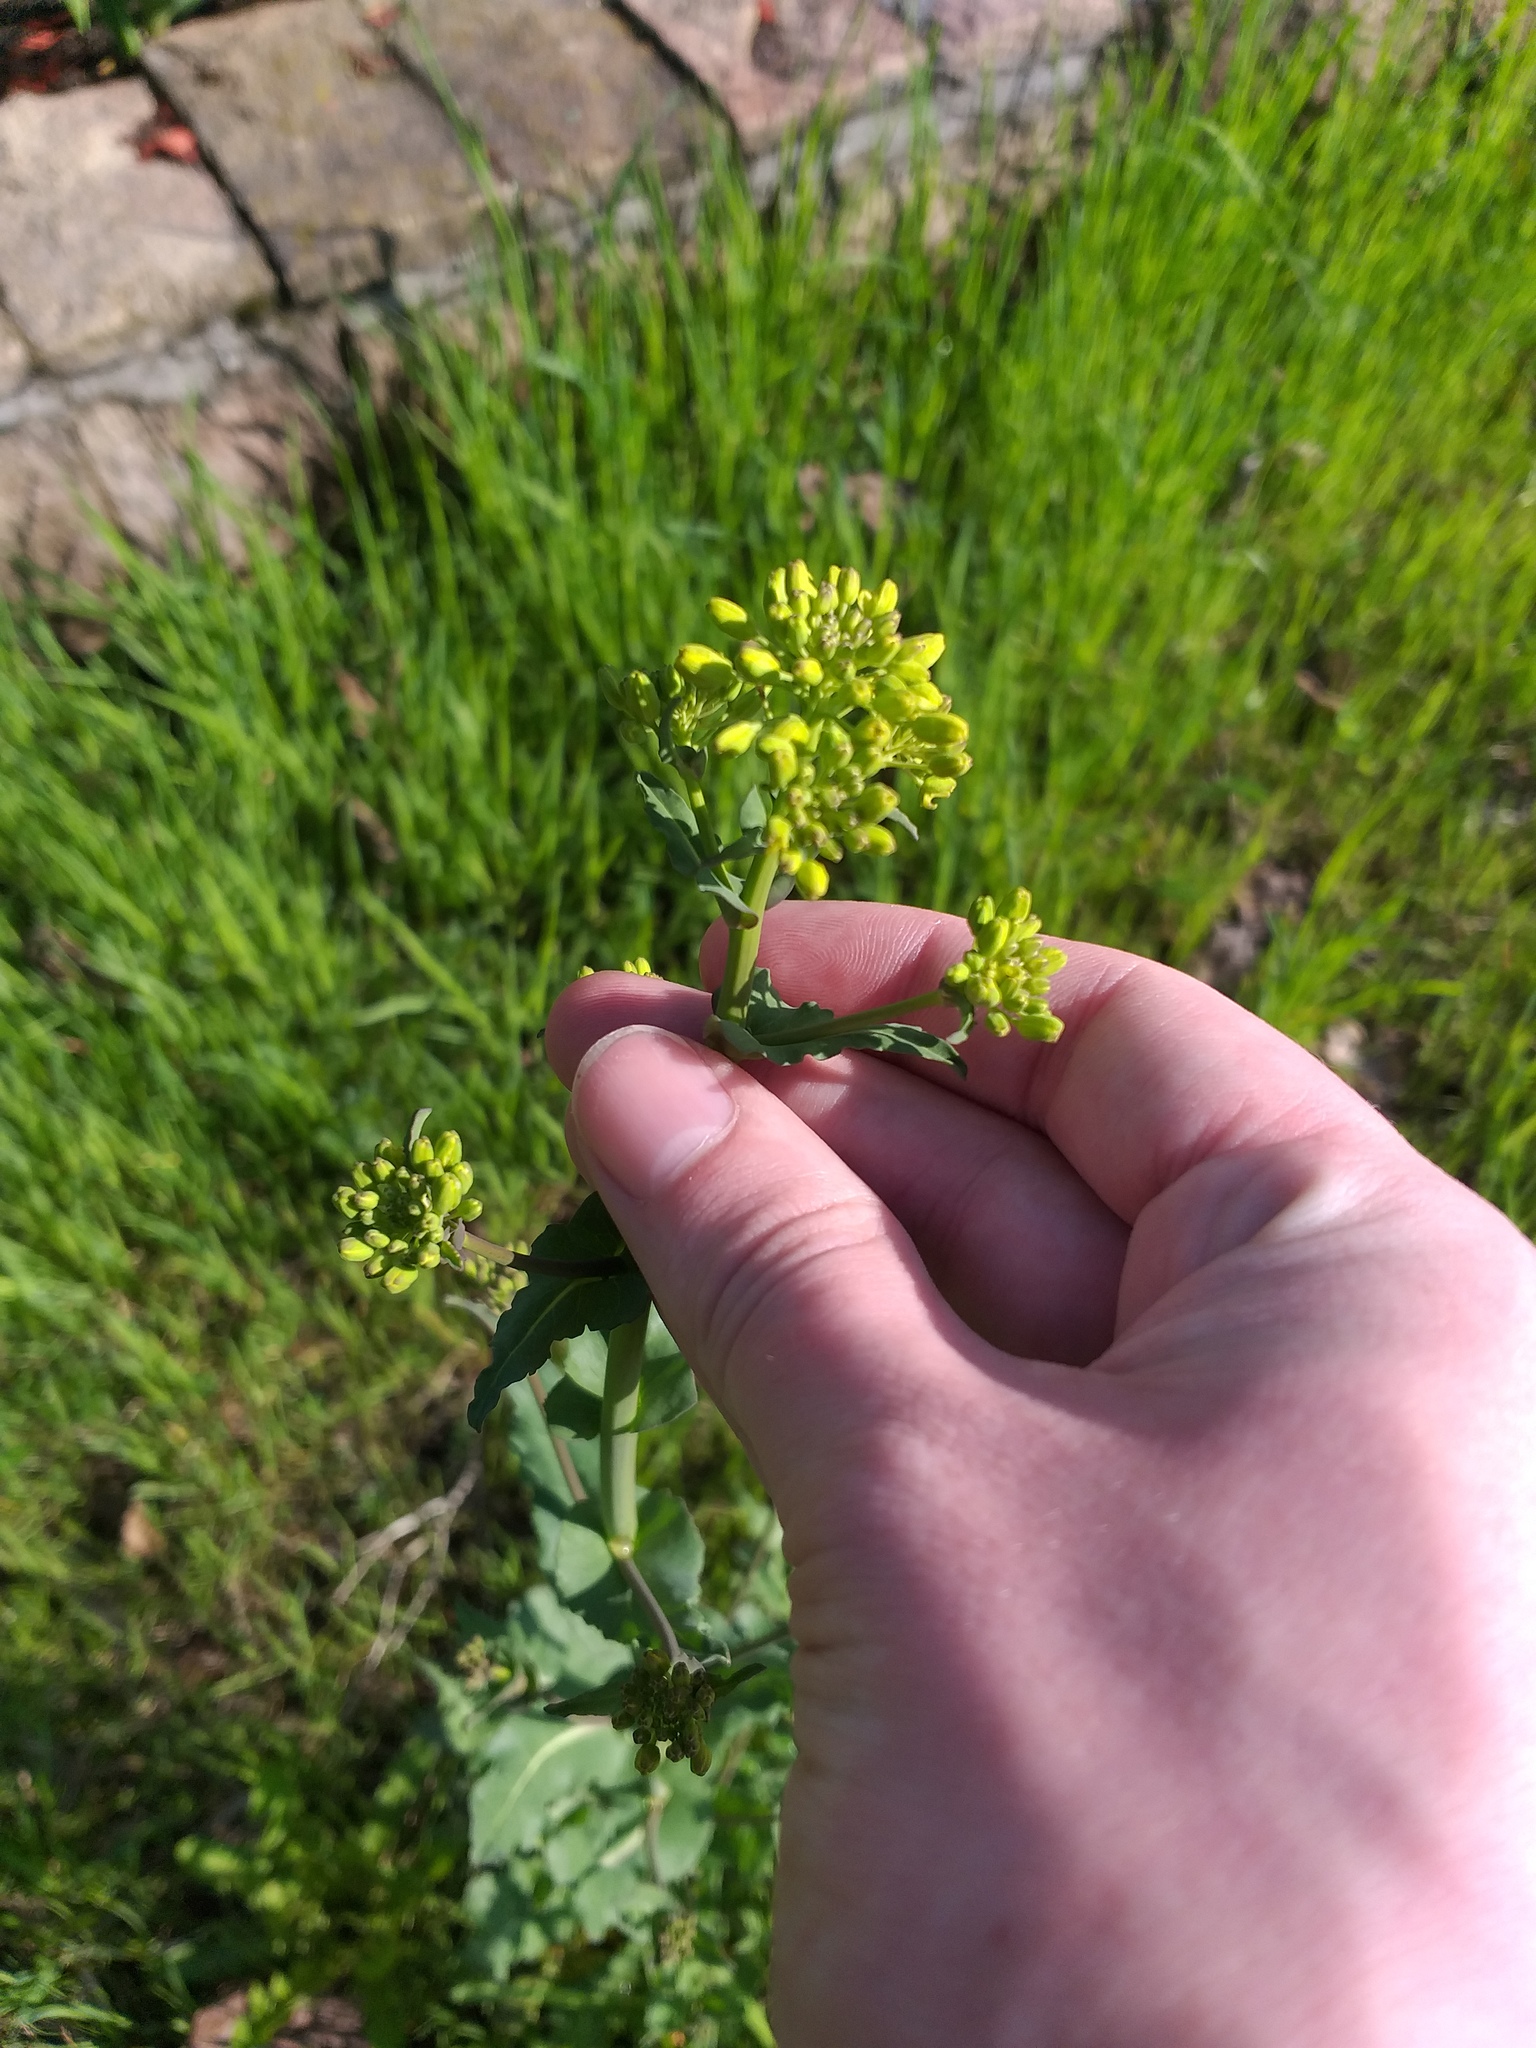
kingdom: Plantae
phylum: Tracheophyta
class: Magnoliopsida
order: Brassicales
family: Brassicaceae
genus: Brassica
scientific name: Brassica rapa
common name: Field mustard
